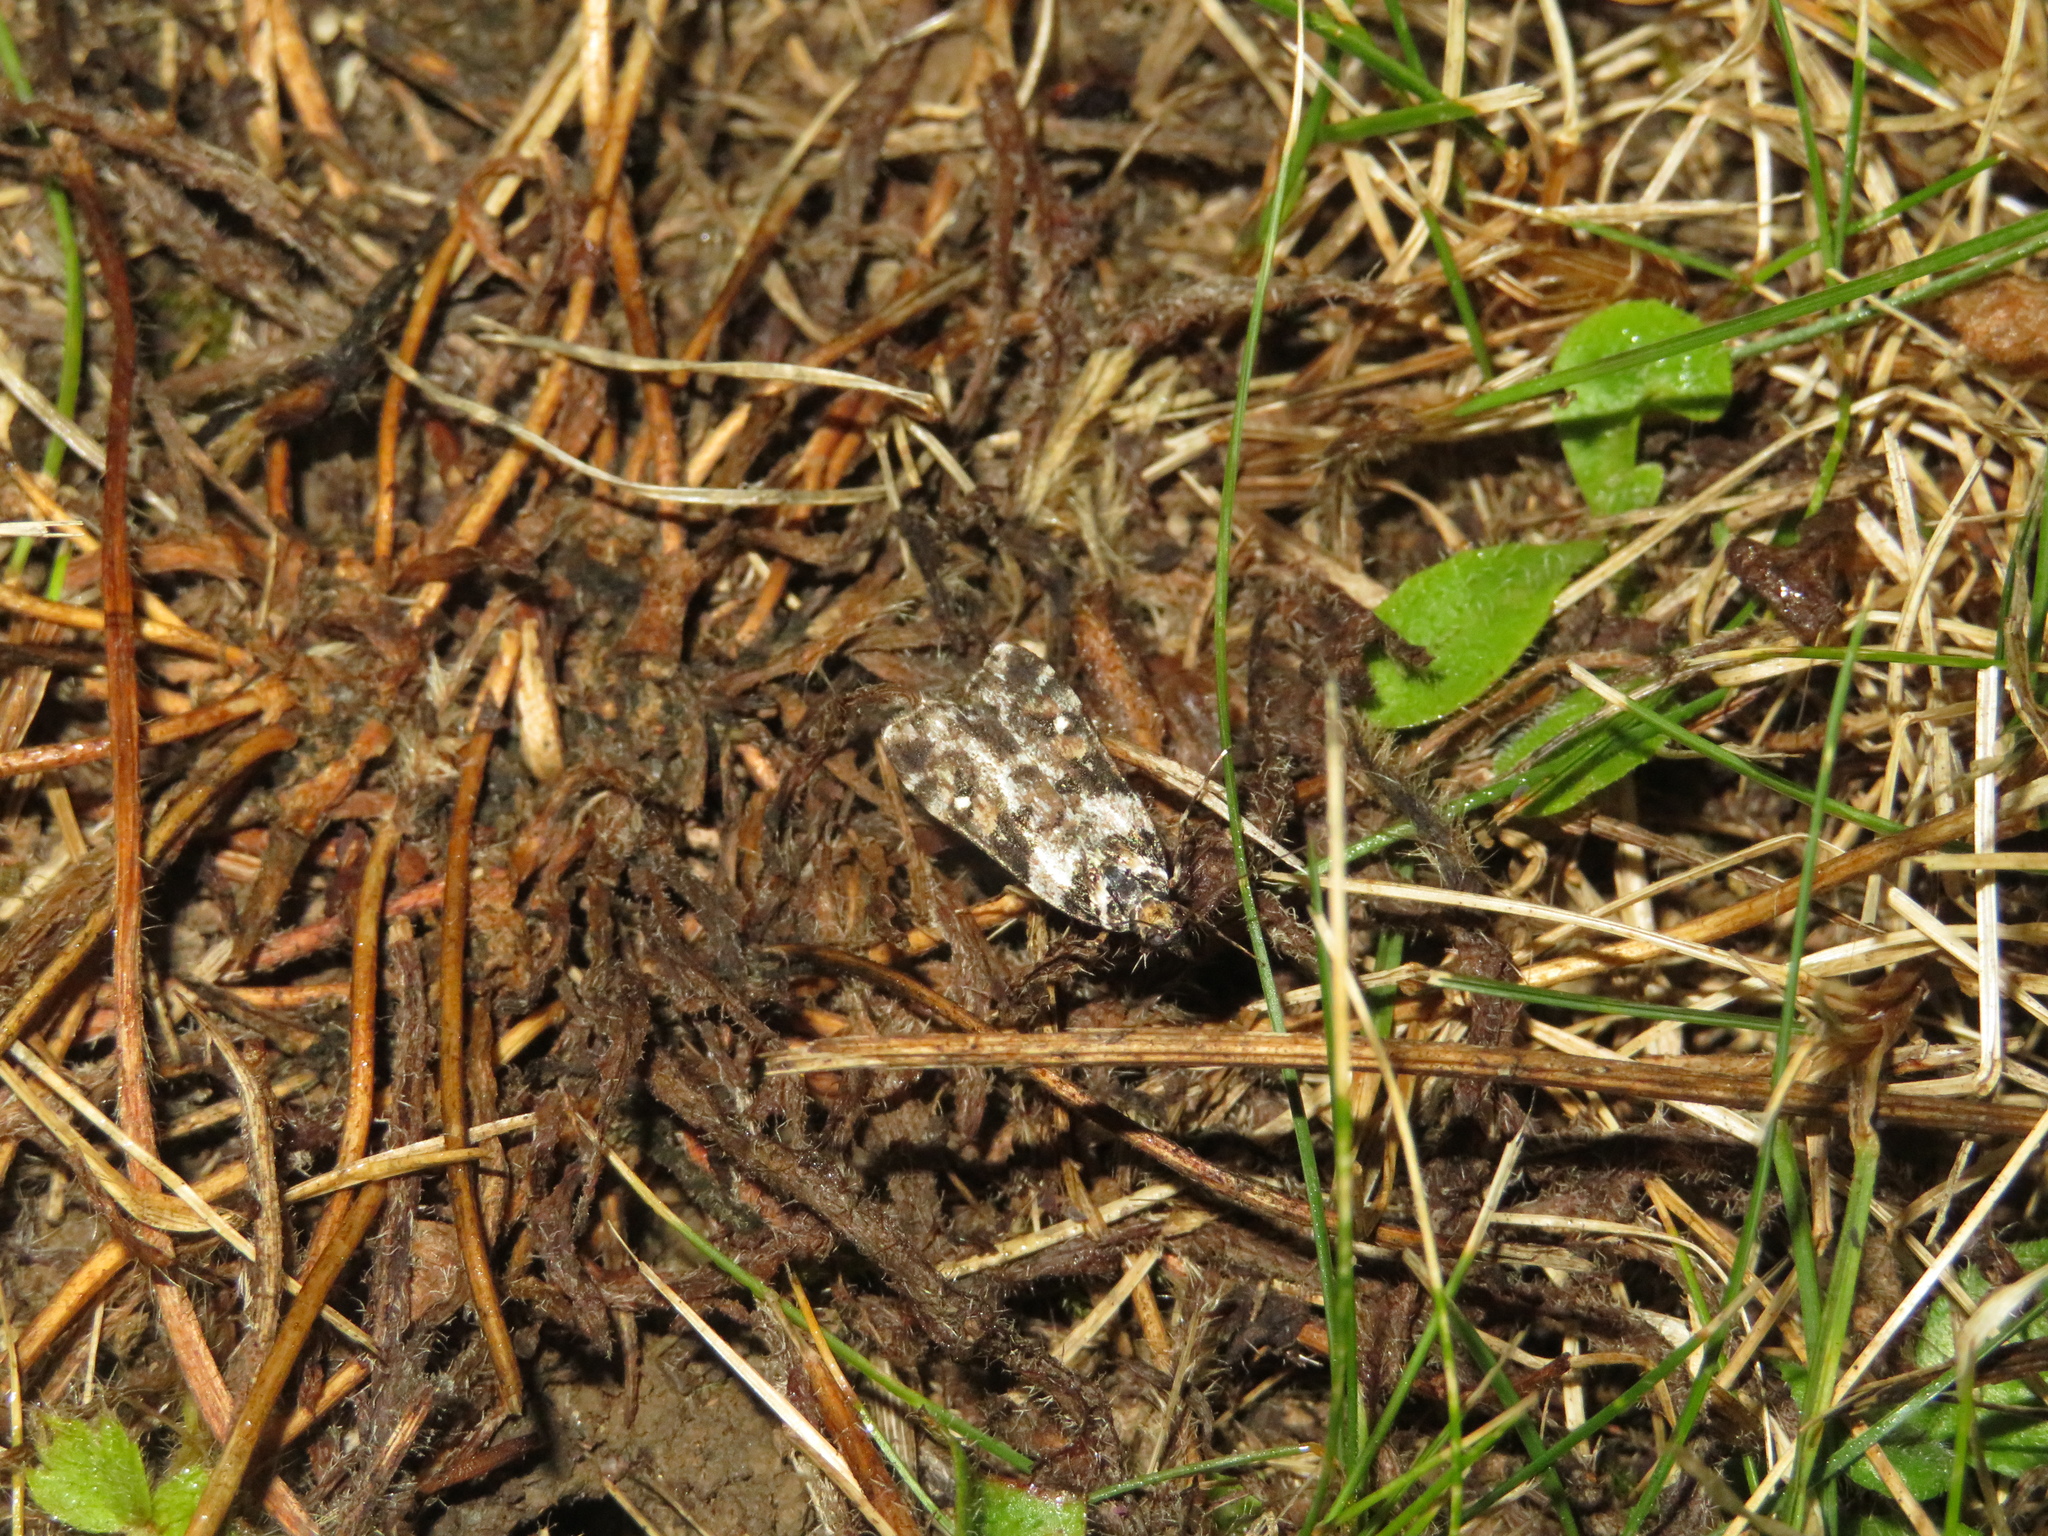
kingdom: Animalia
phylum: Arthropoda
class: Insecta
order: Lepidoptera
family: Crambidae
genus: Eudonia
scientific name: Eudonia diphtheralis
